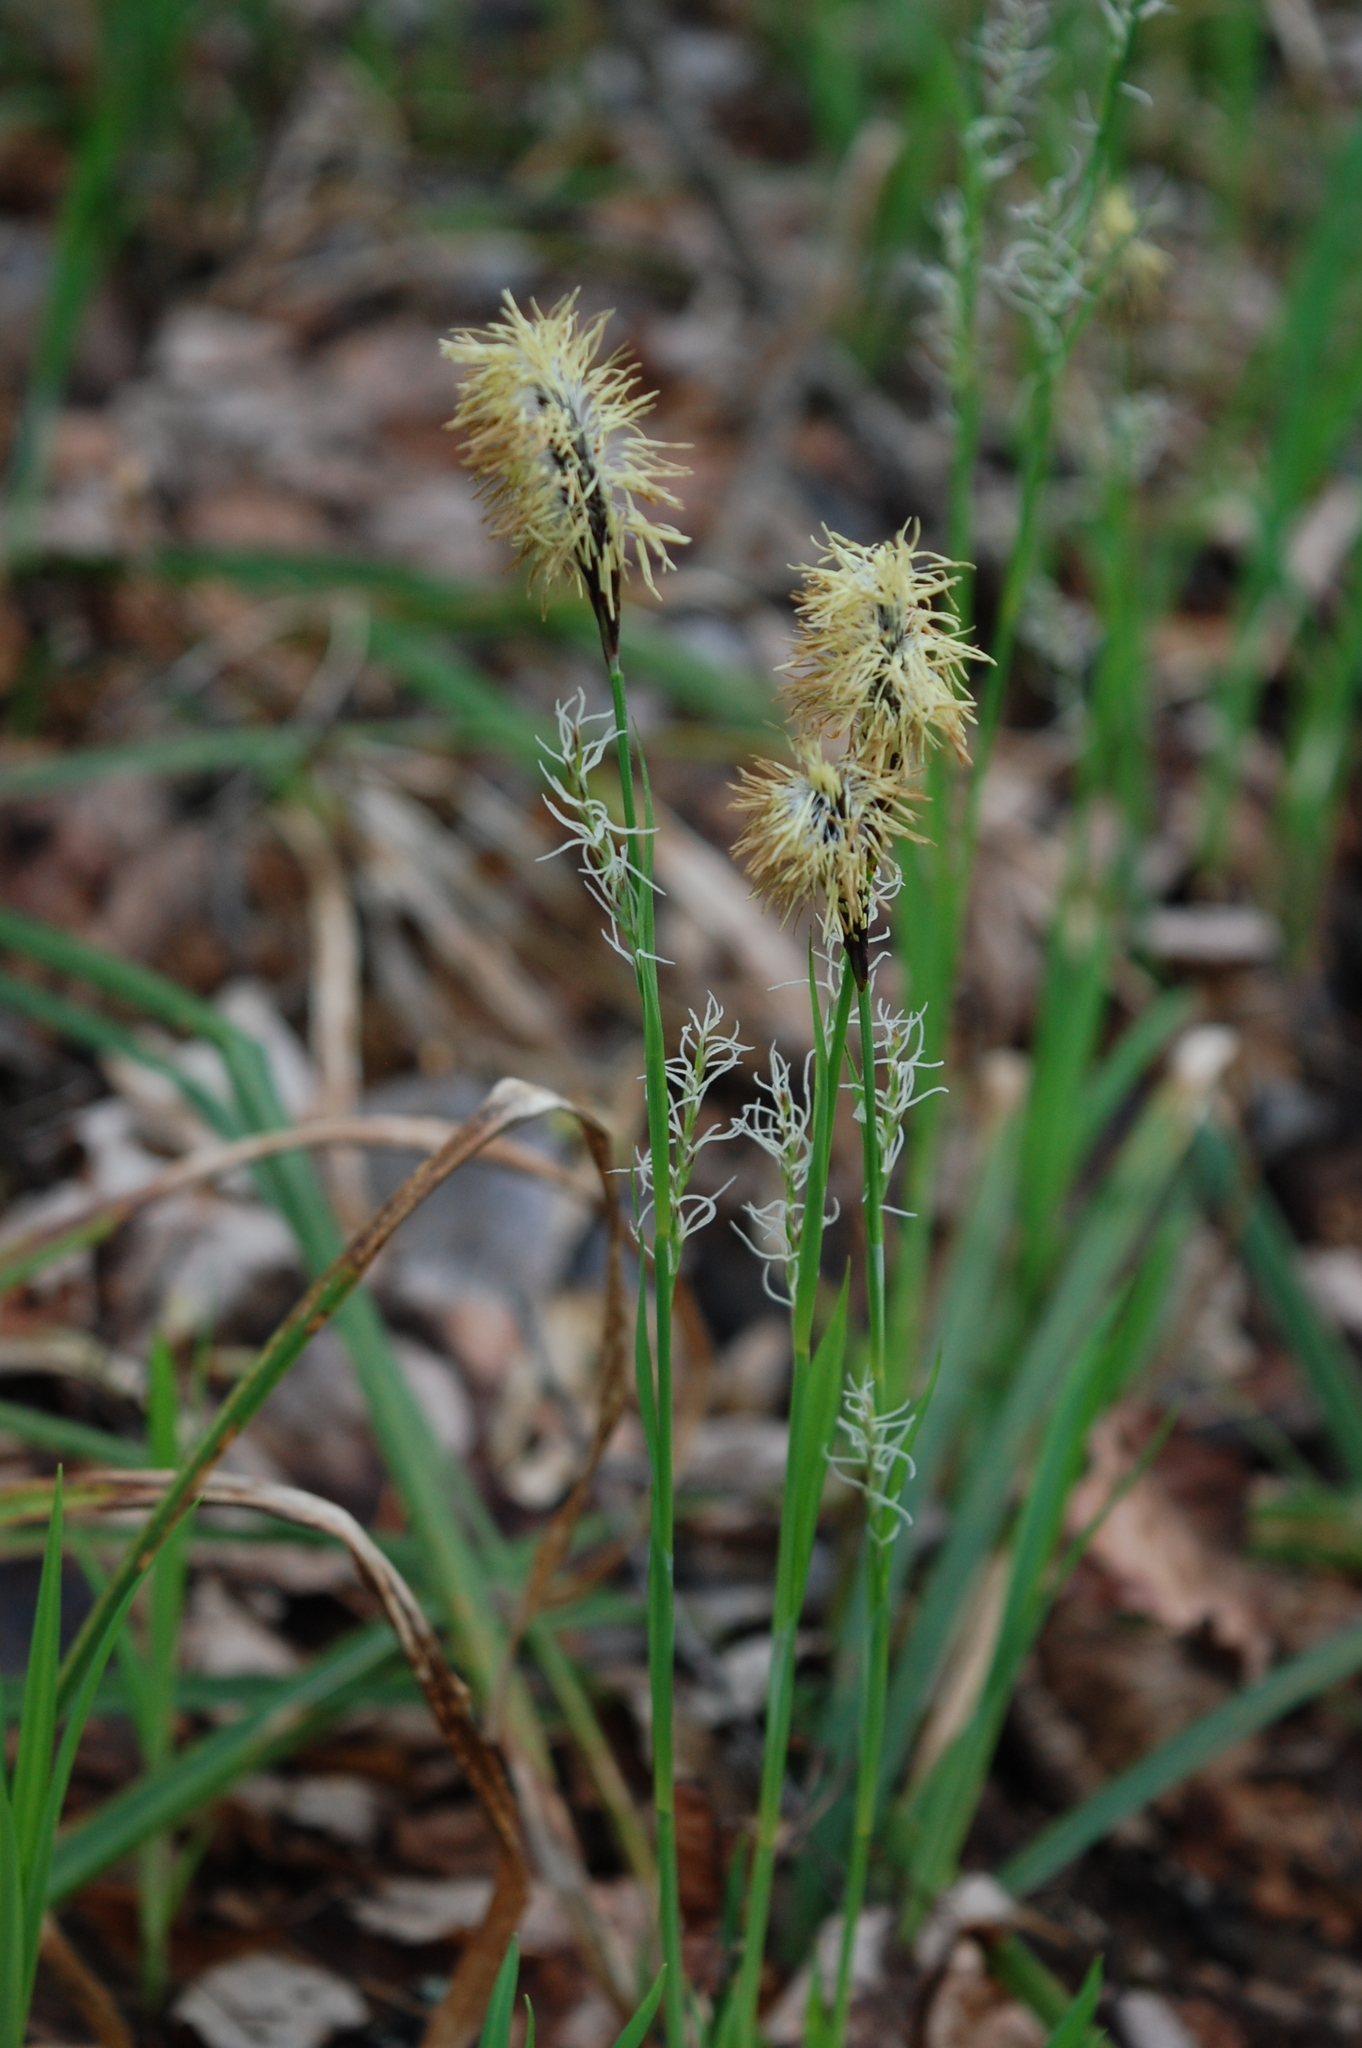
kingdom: Plantae
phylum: Tracheophyta
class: Liliopsida
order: Poales
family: Cyperaceae
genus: Carex
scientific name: Carex pilosa
